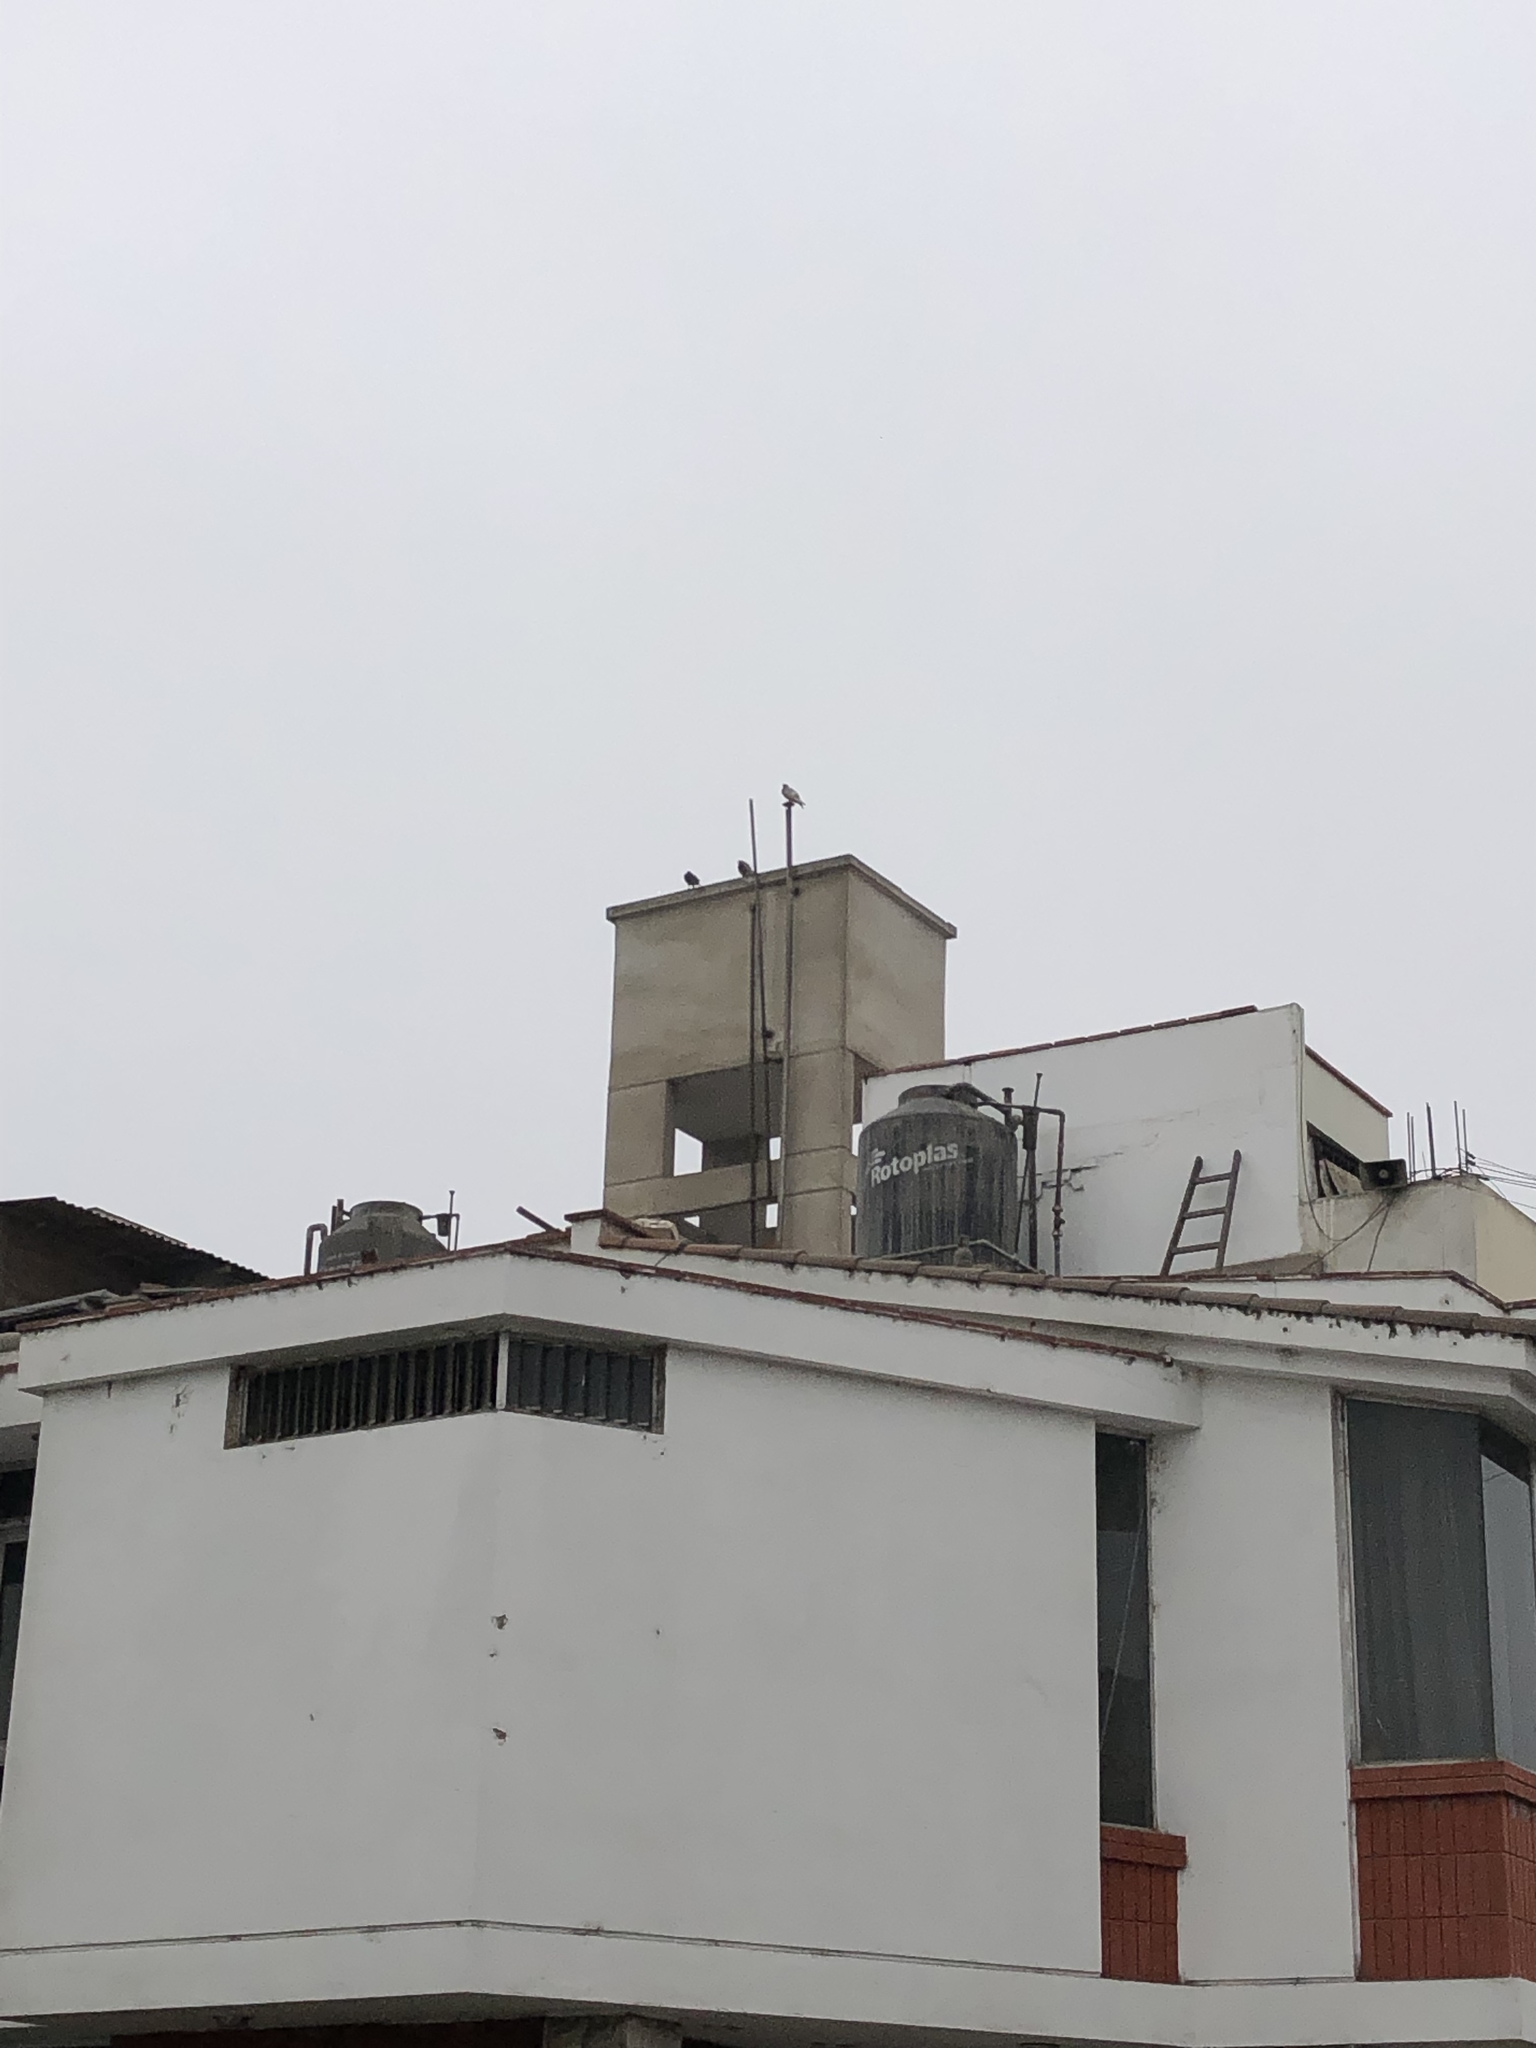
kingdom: Animalia
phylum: Chordata
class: Aves
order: Columbiformes
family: Columbidae
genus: Columba
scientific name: Columba livia
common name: Rock pigeon
